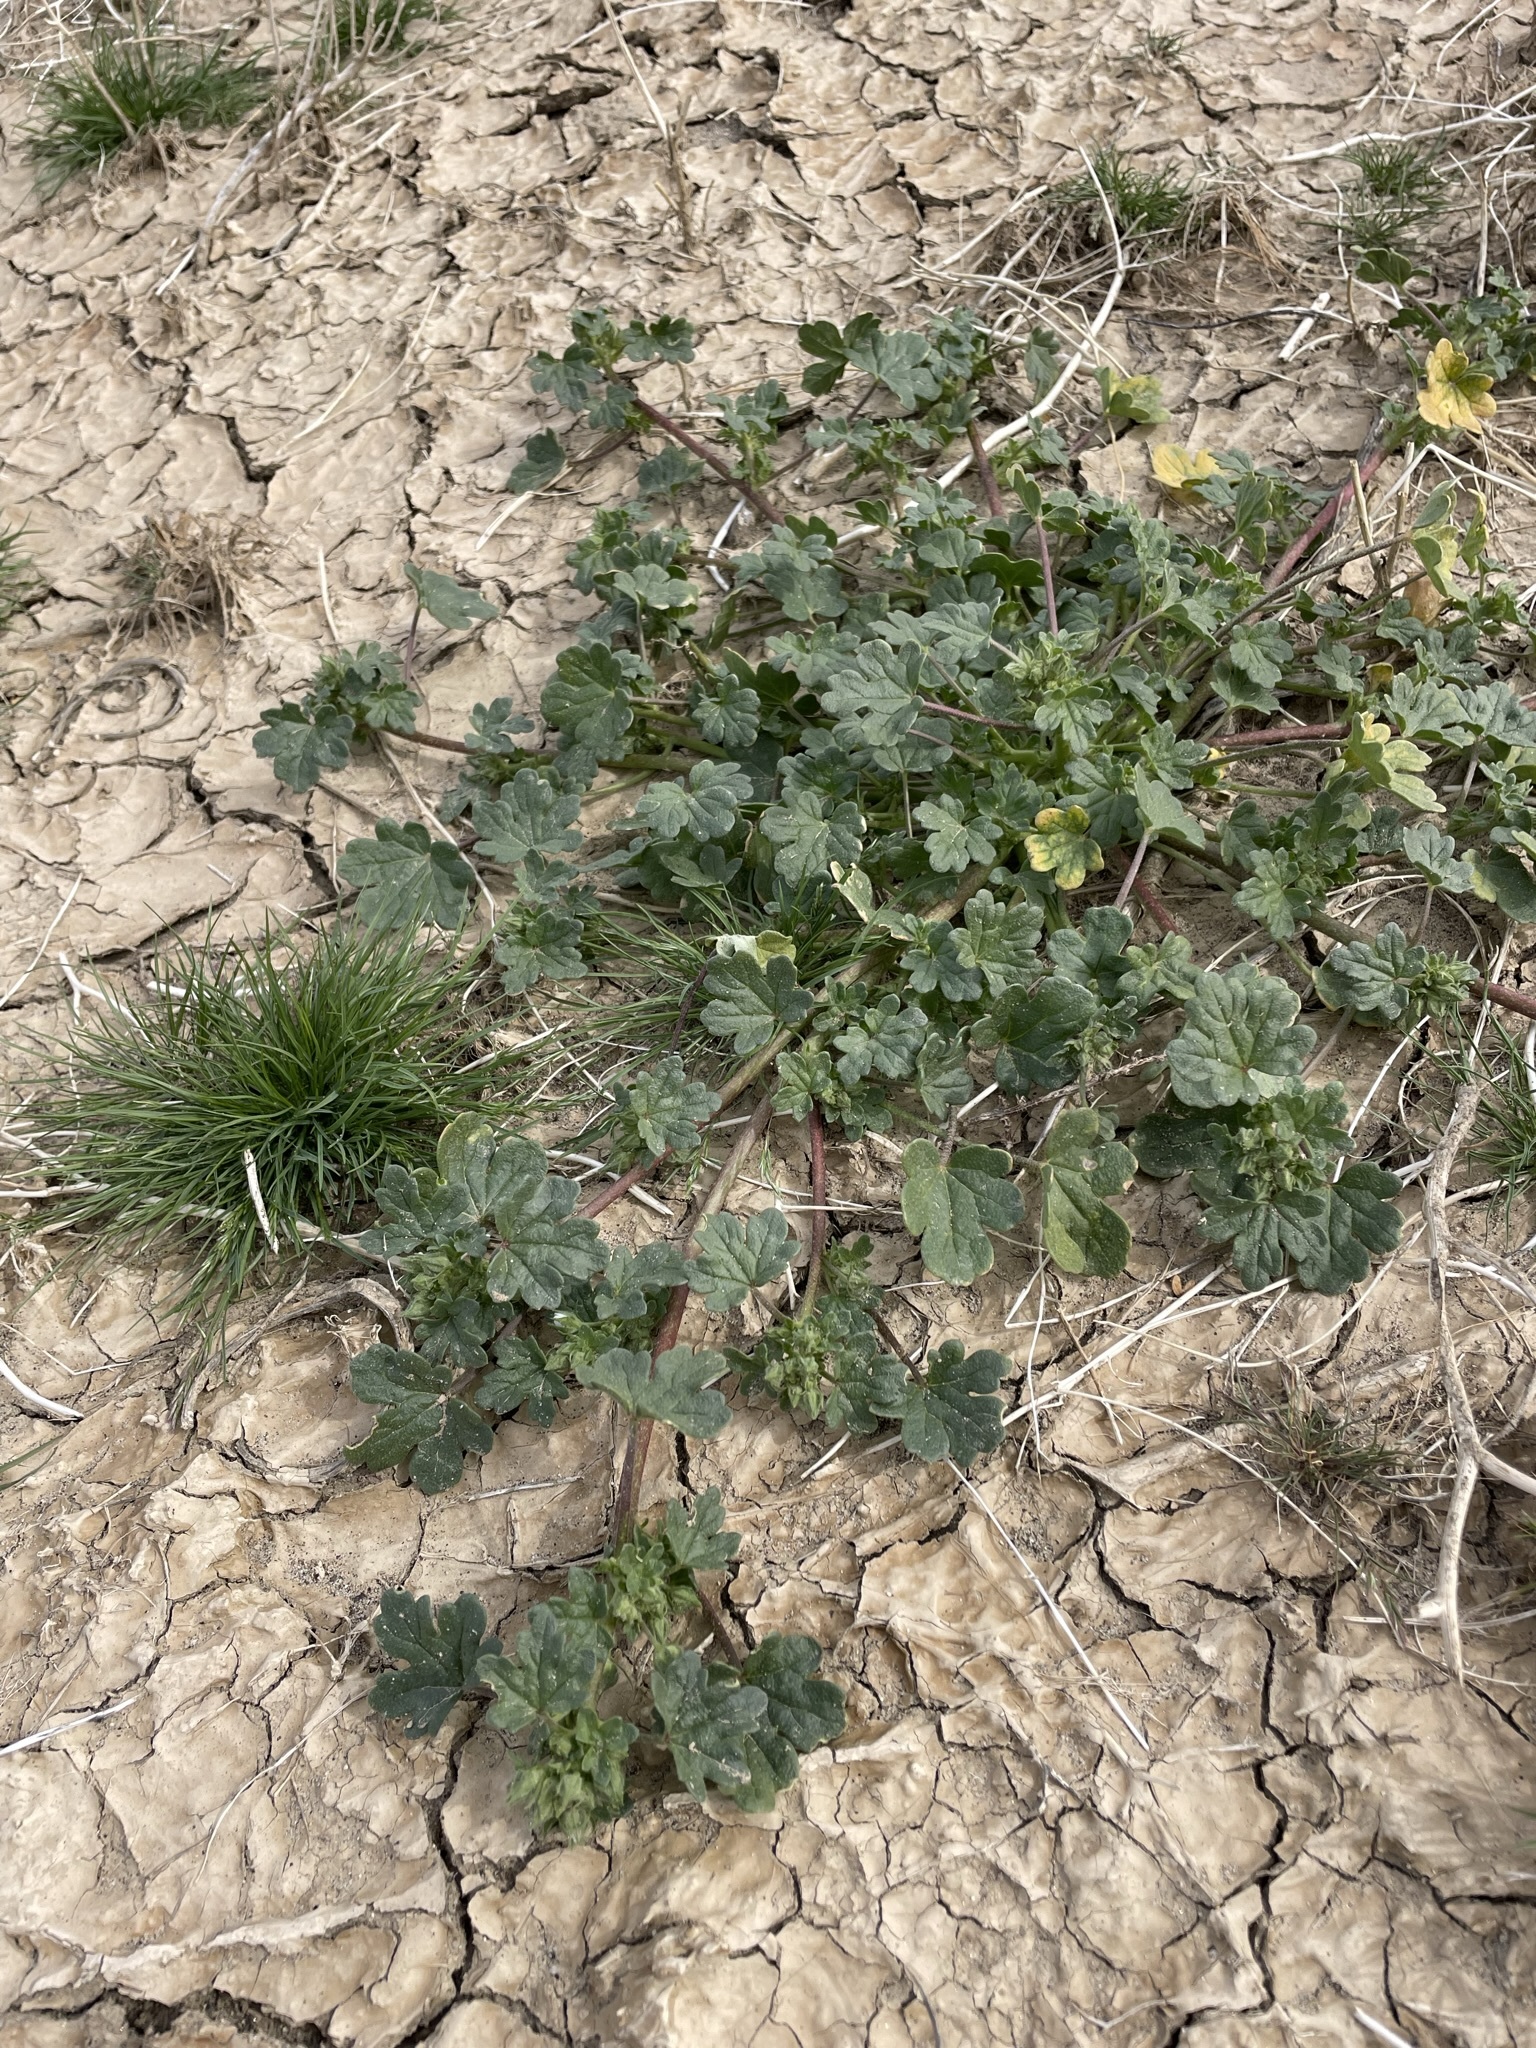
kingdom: Plantae
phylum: Tracheophyta
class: Magnoliopsida
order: Malvales
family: Malvaceae
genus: Eremalche
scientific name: Eremalche exilis
